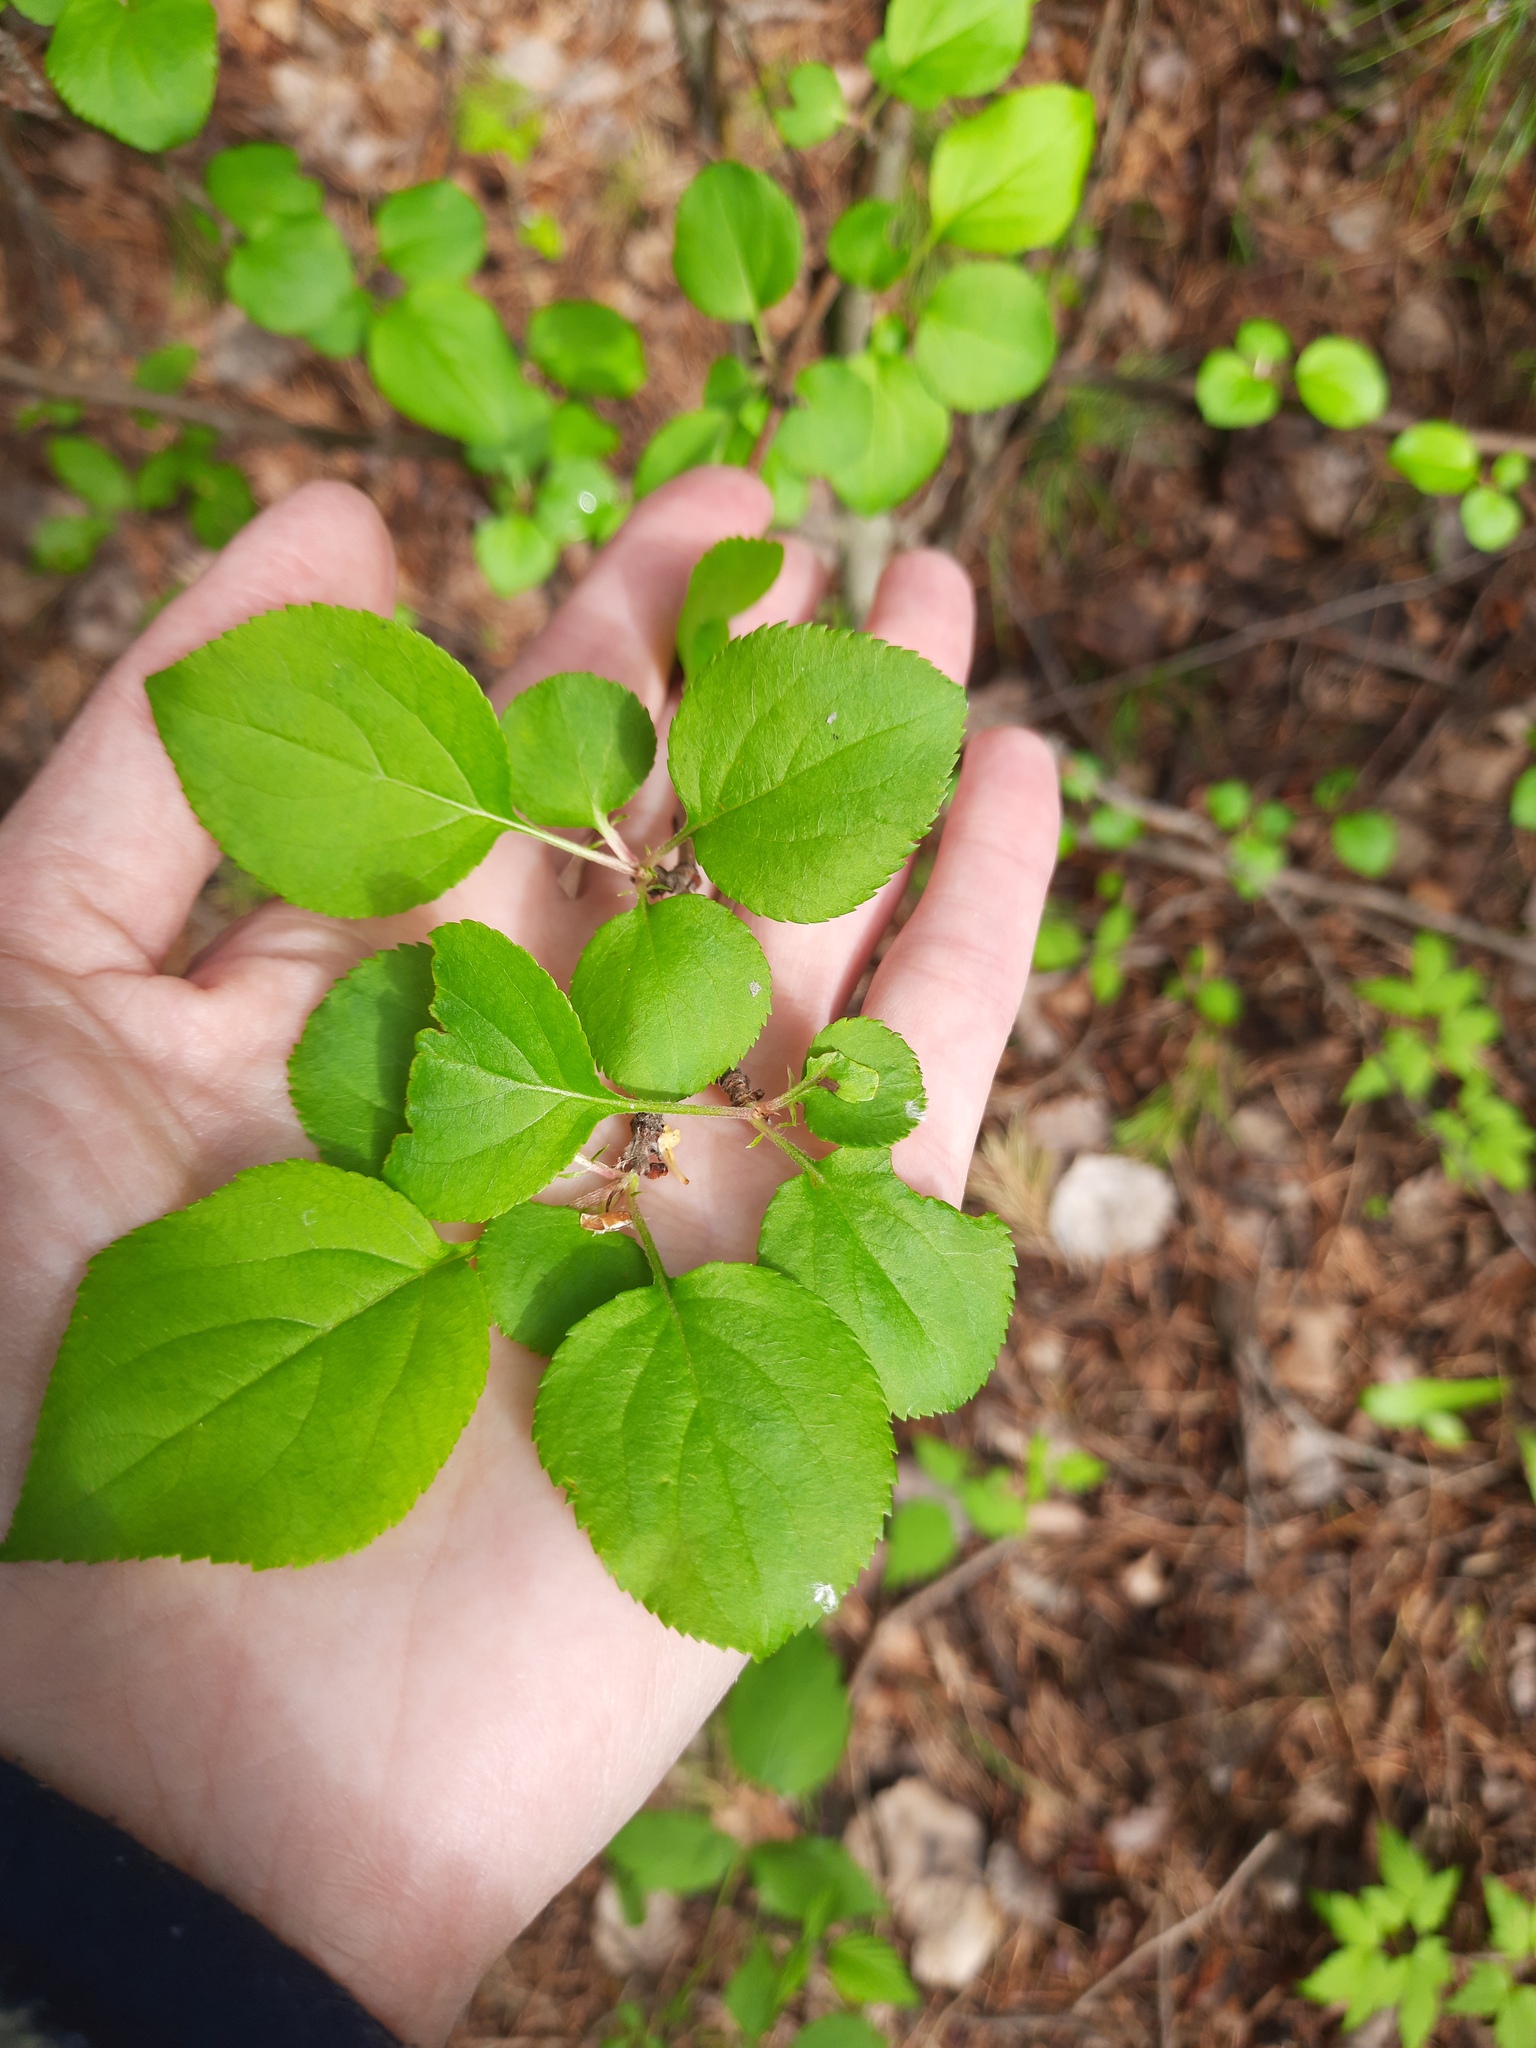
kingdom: Plantae
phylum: Tracheophyta
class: Magnoliopsida
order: Rosales
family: Rosaceae
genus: Malus
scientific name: Malus baccata
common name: Siberian crab
